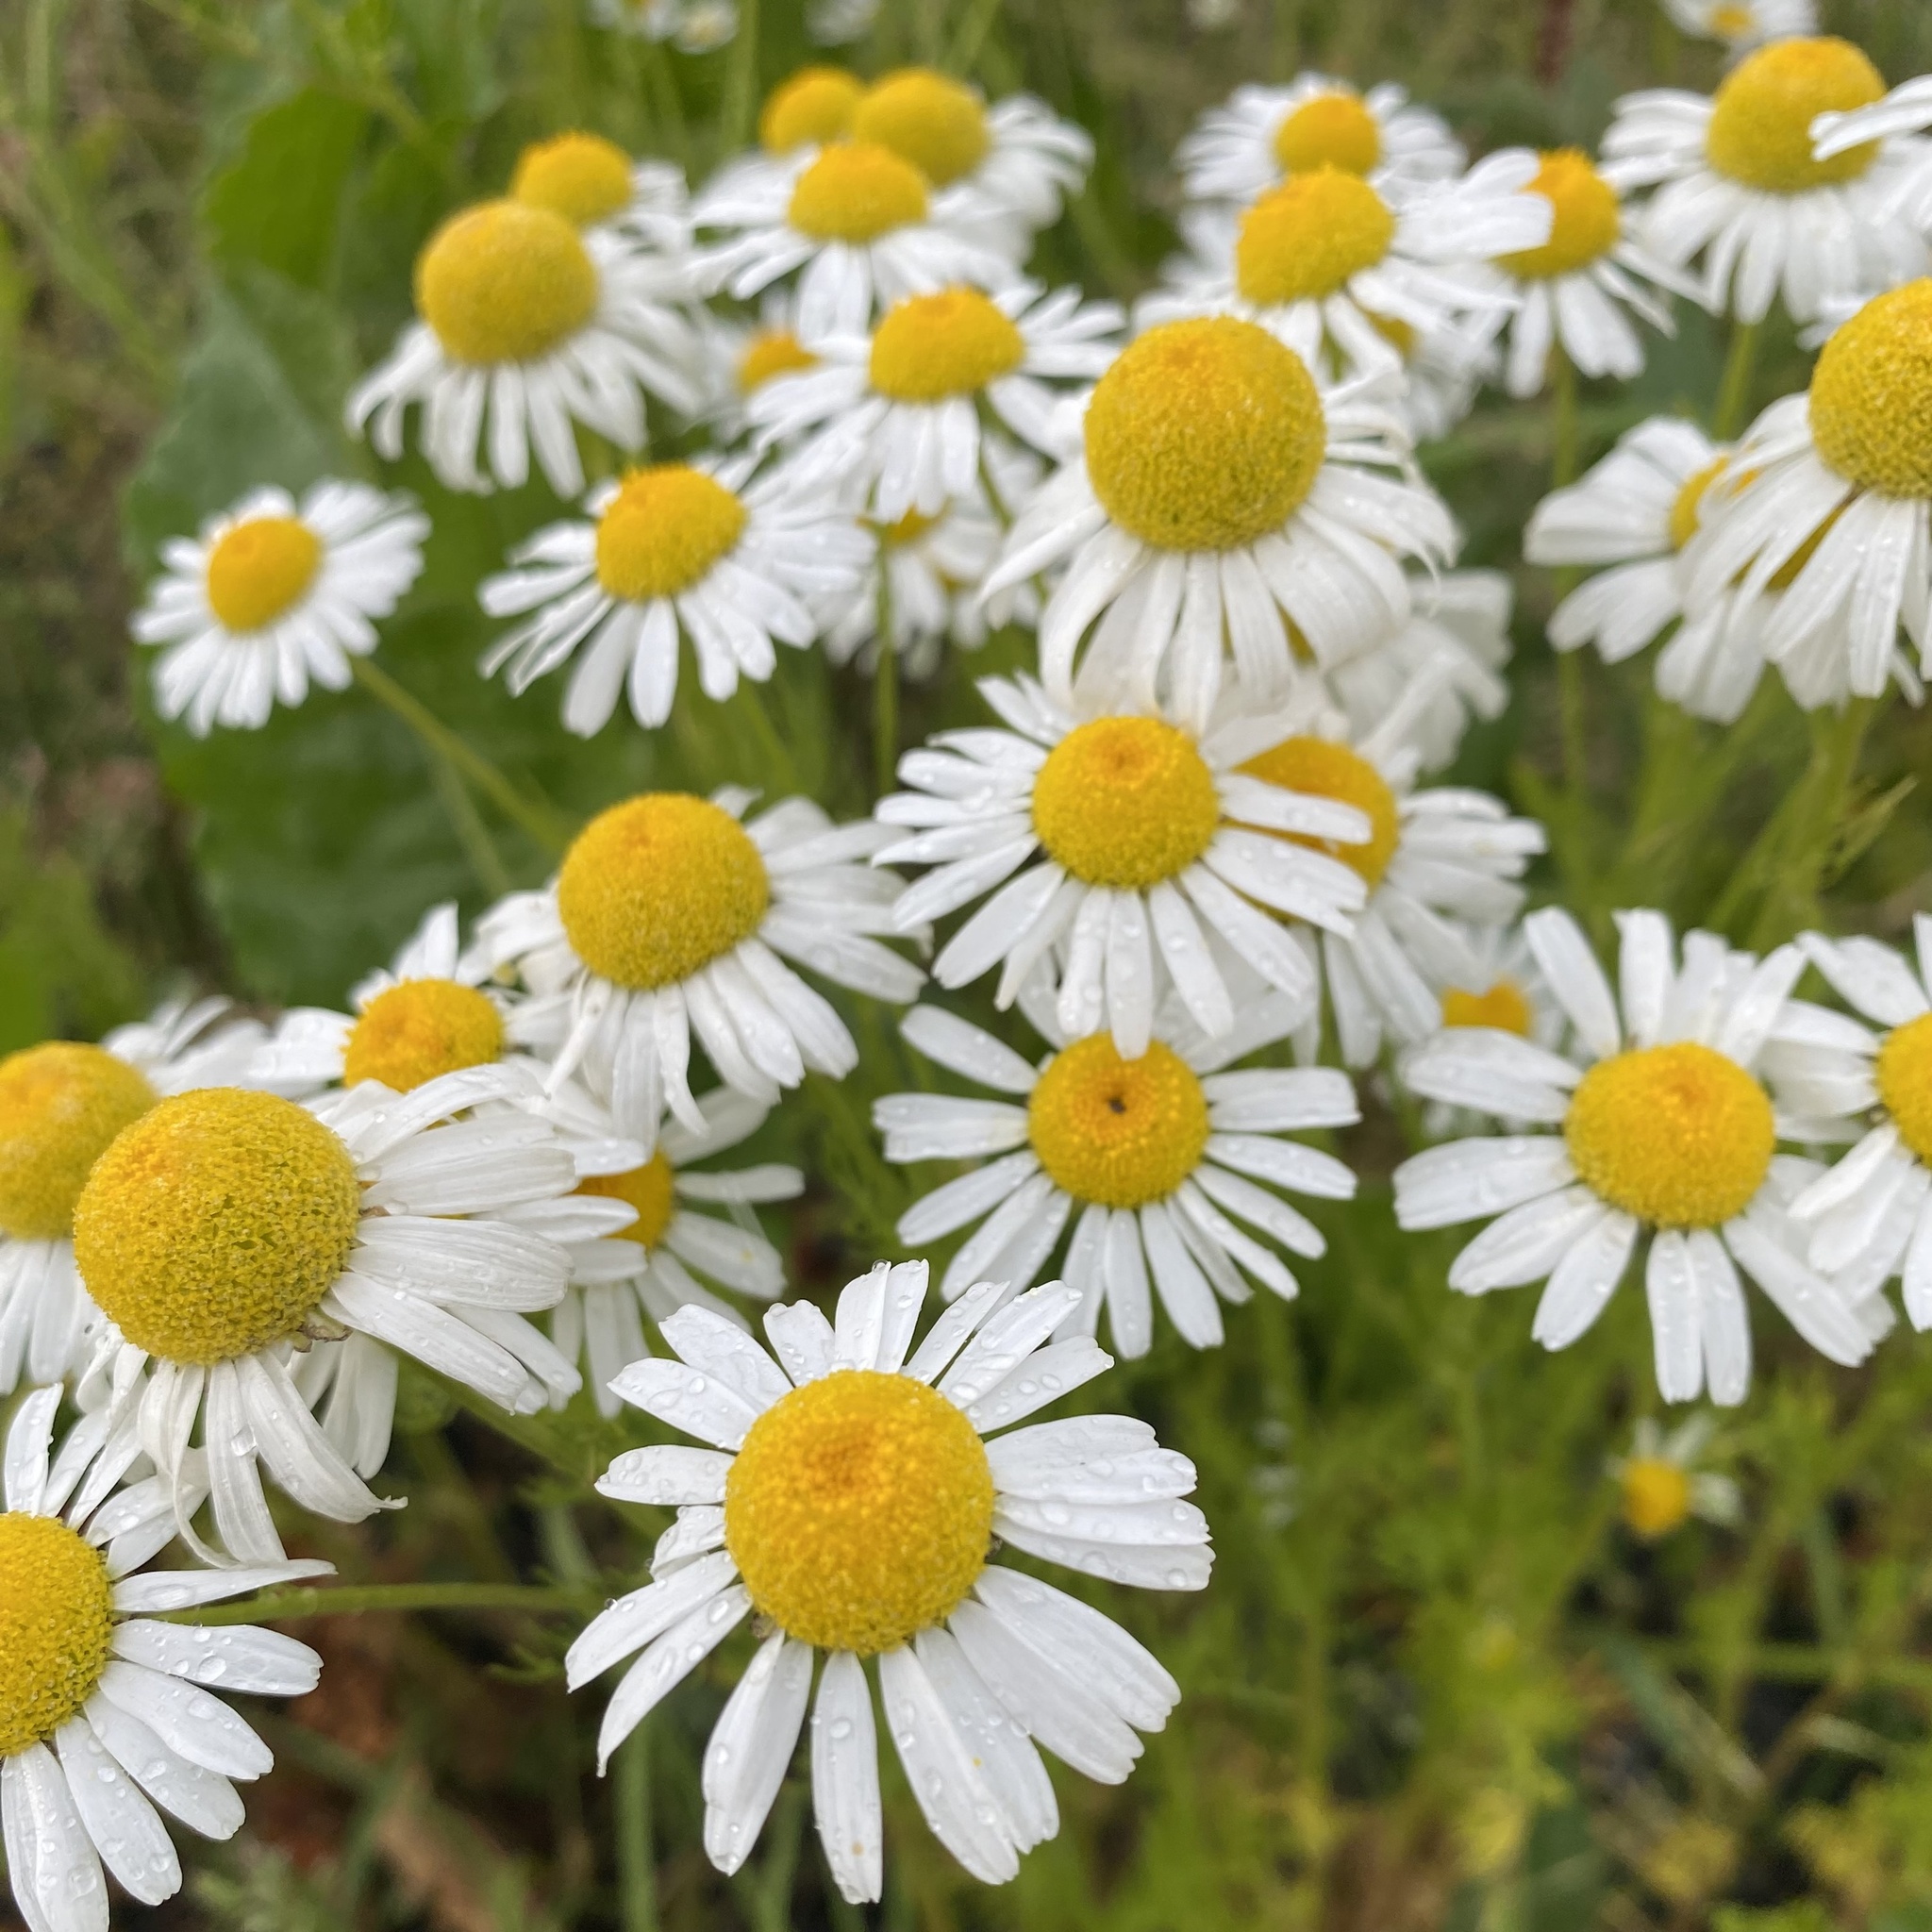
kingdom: Plantae
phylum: Tracheophyta
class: Magnoliopsida
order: Asterales
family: Asteraceae
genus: Tripleurospermum
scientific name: Tripleurospermum inodorum
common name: Scentless mayweed
